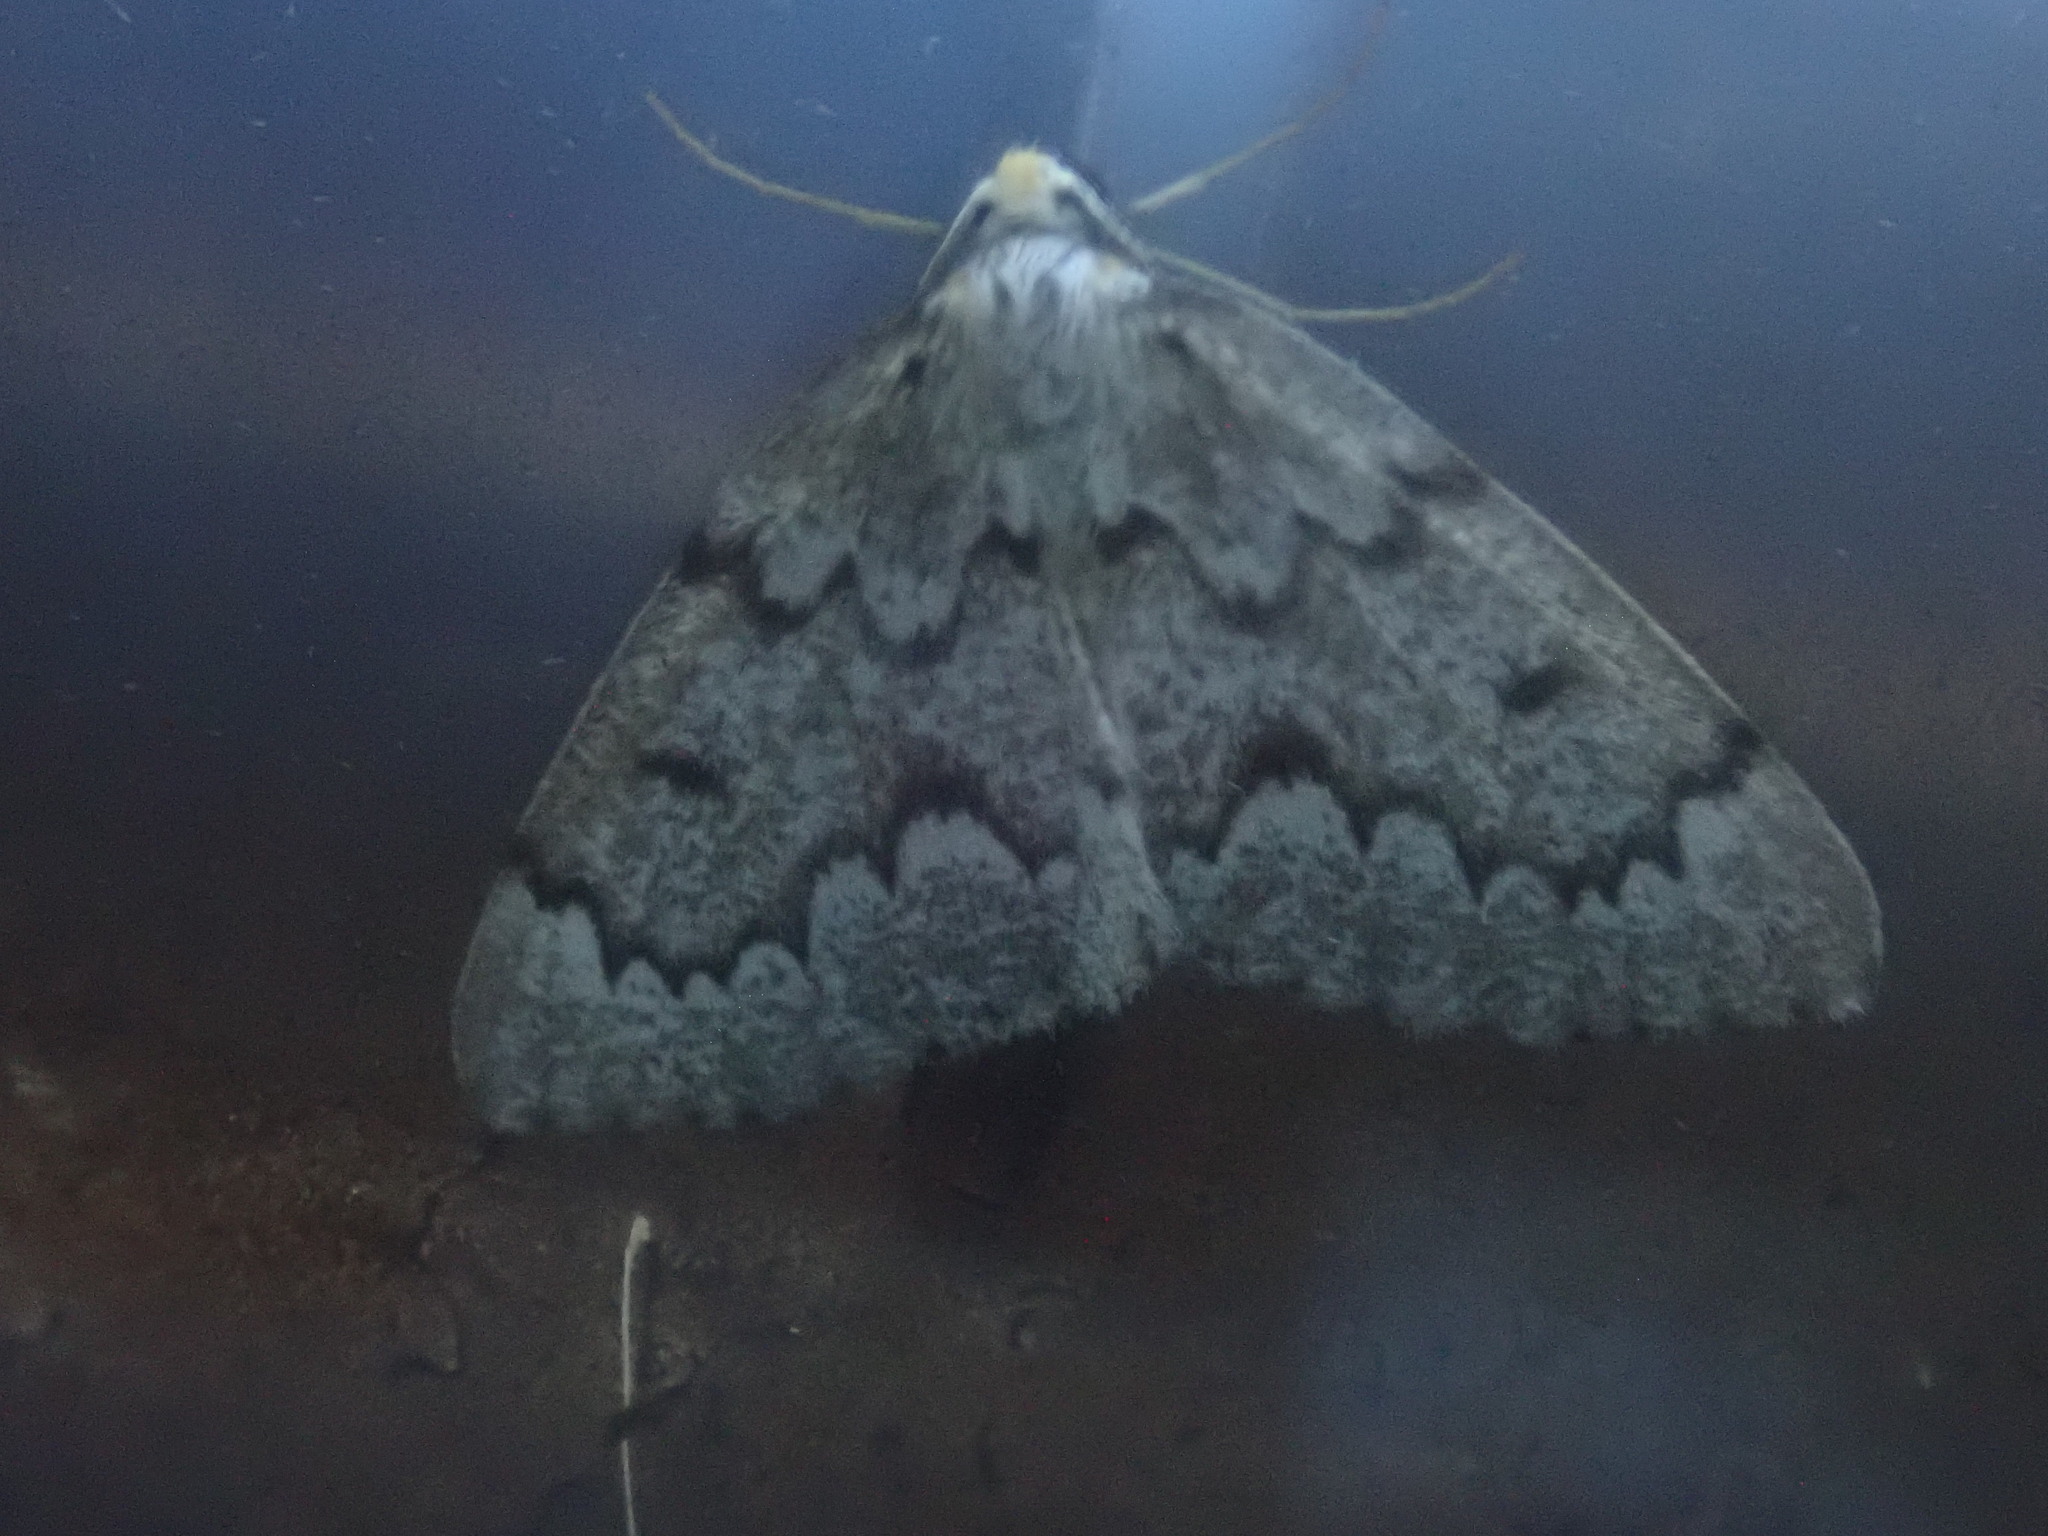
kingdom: Animalia
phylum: Arthropoda
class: Insecta
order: Lepidoptera
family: Geometridae
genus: Nepytia
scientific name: Nepytia canosaria
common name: False hemlock looper
